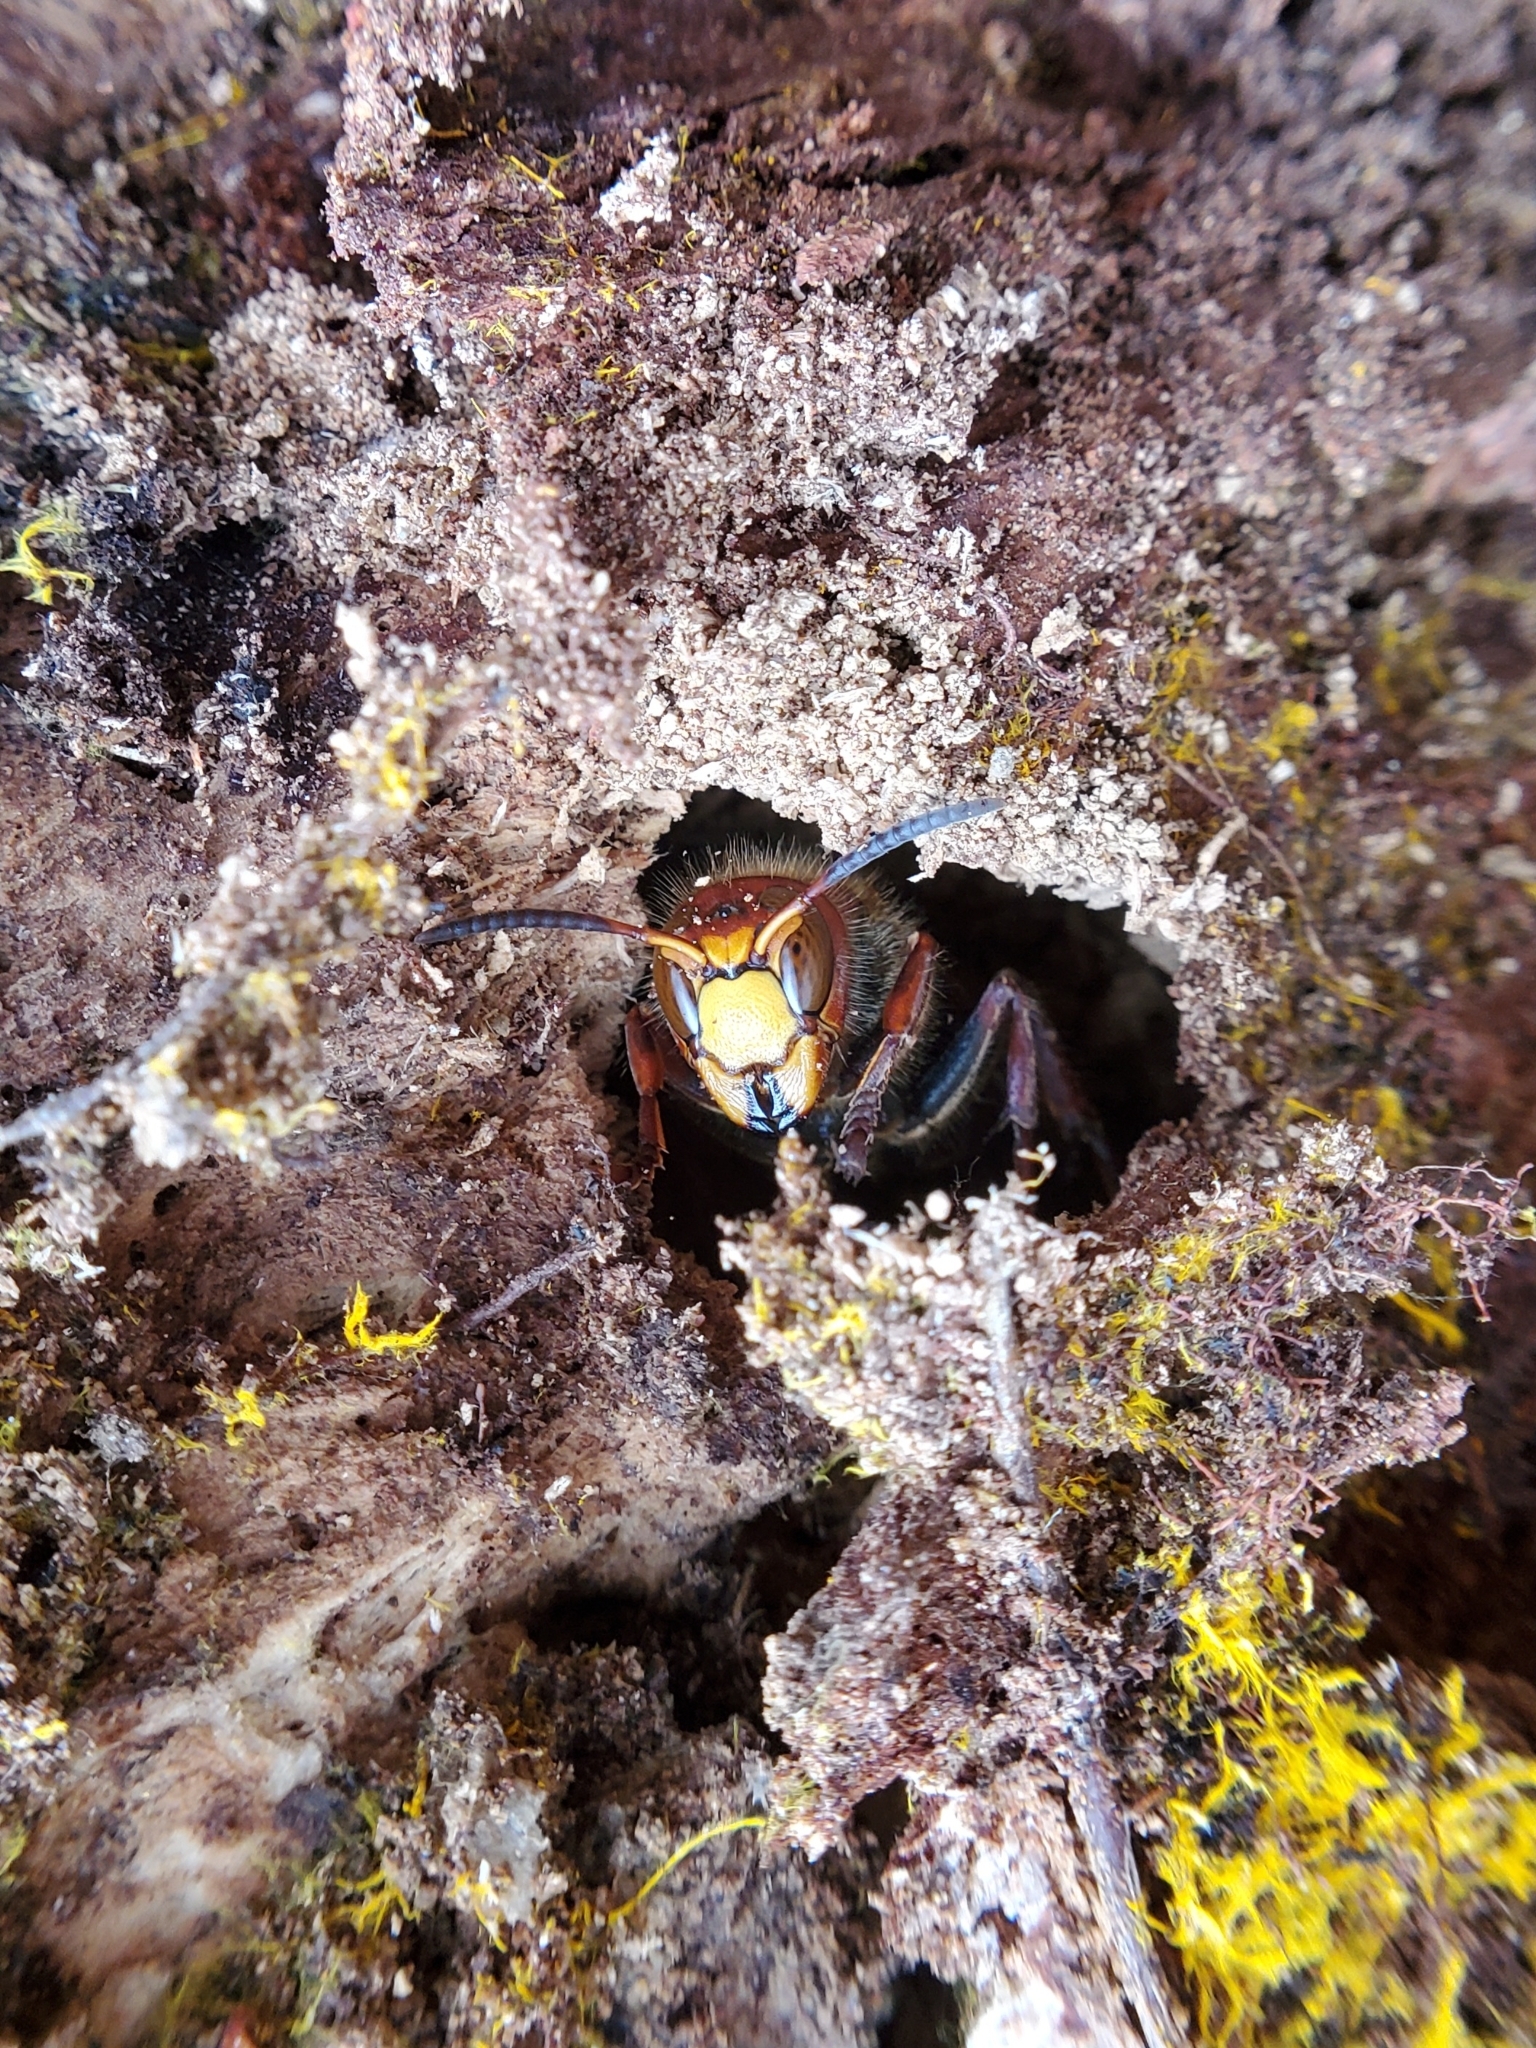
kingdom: Animalia
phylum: Arthropoda
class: Insecta
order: Hymenoptera
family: Vespidae
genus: Vespa
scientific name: Vespa crabro
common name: Hornet
